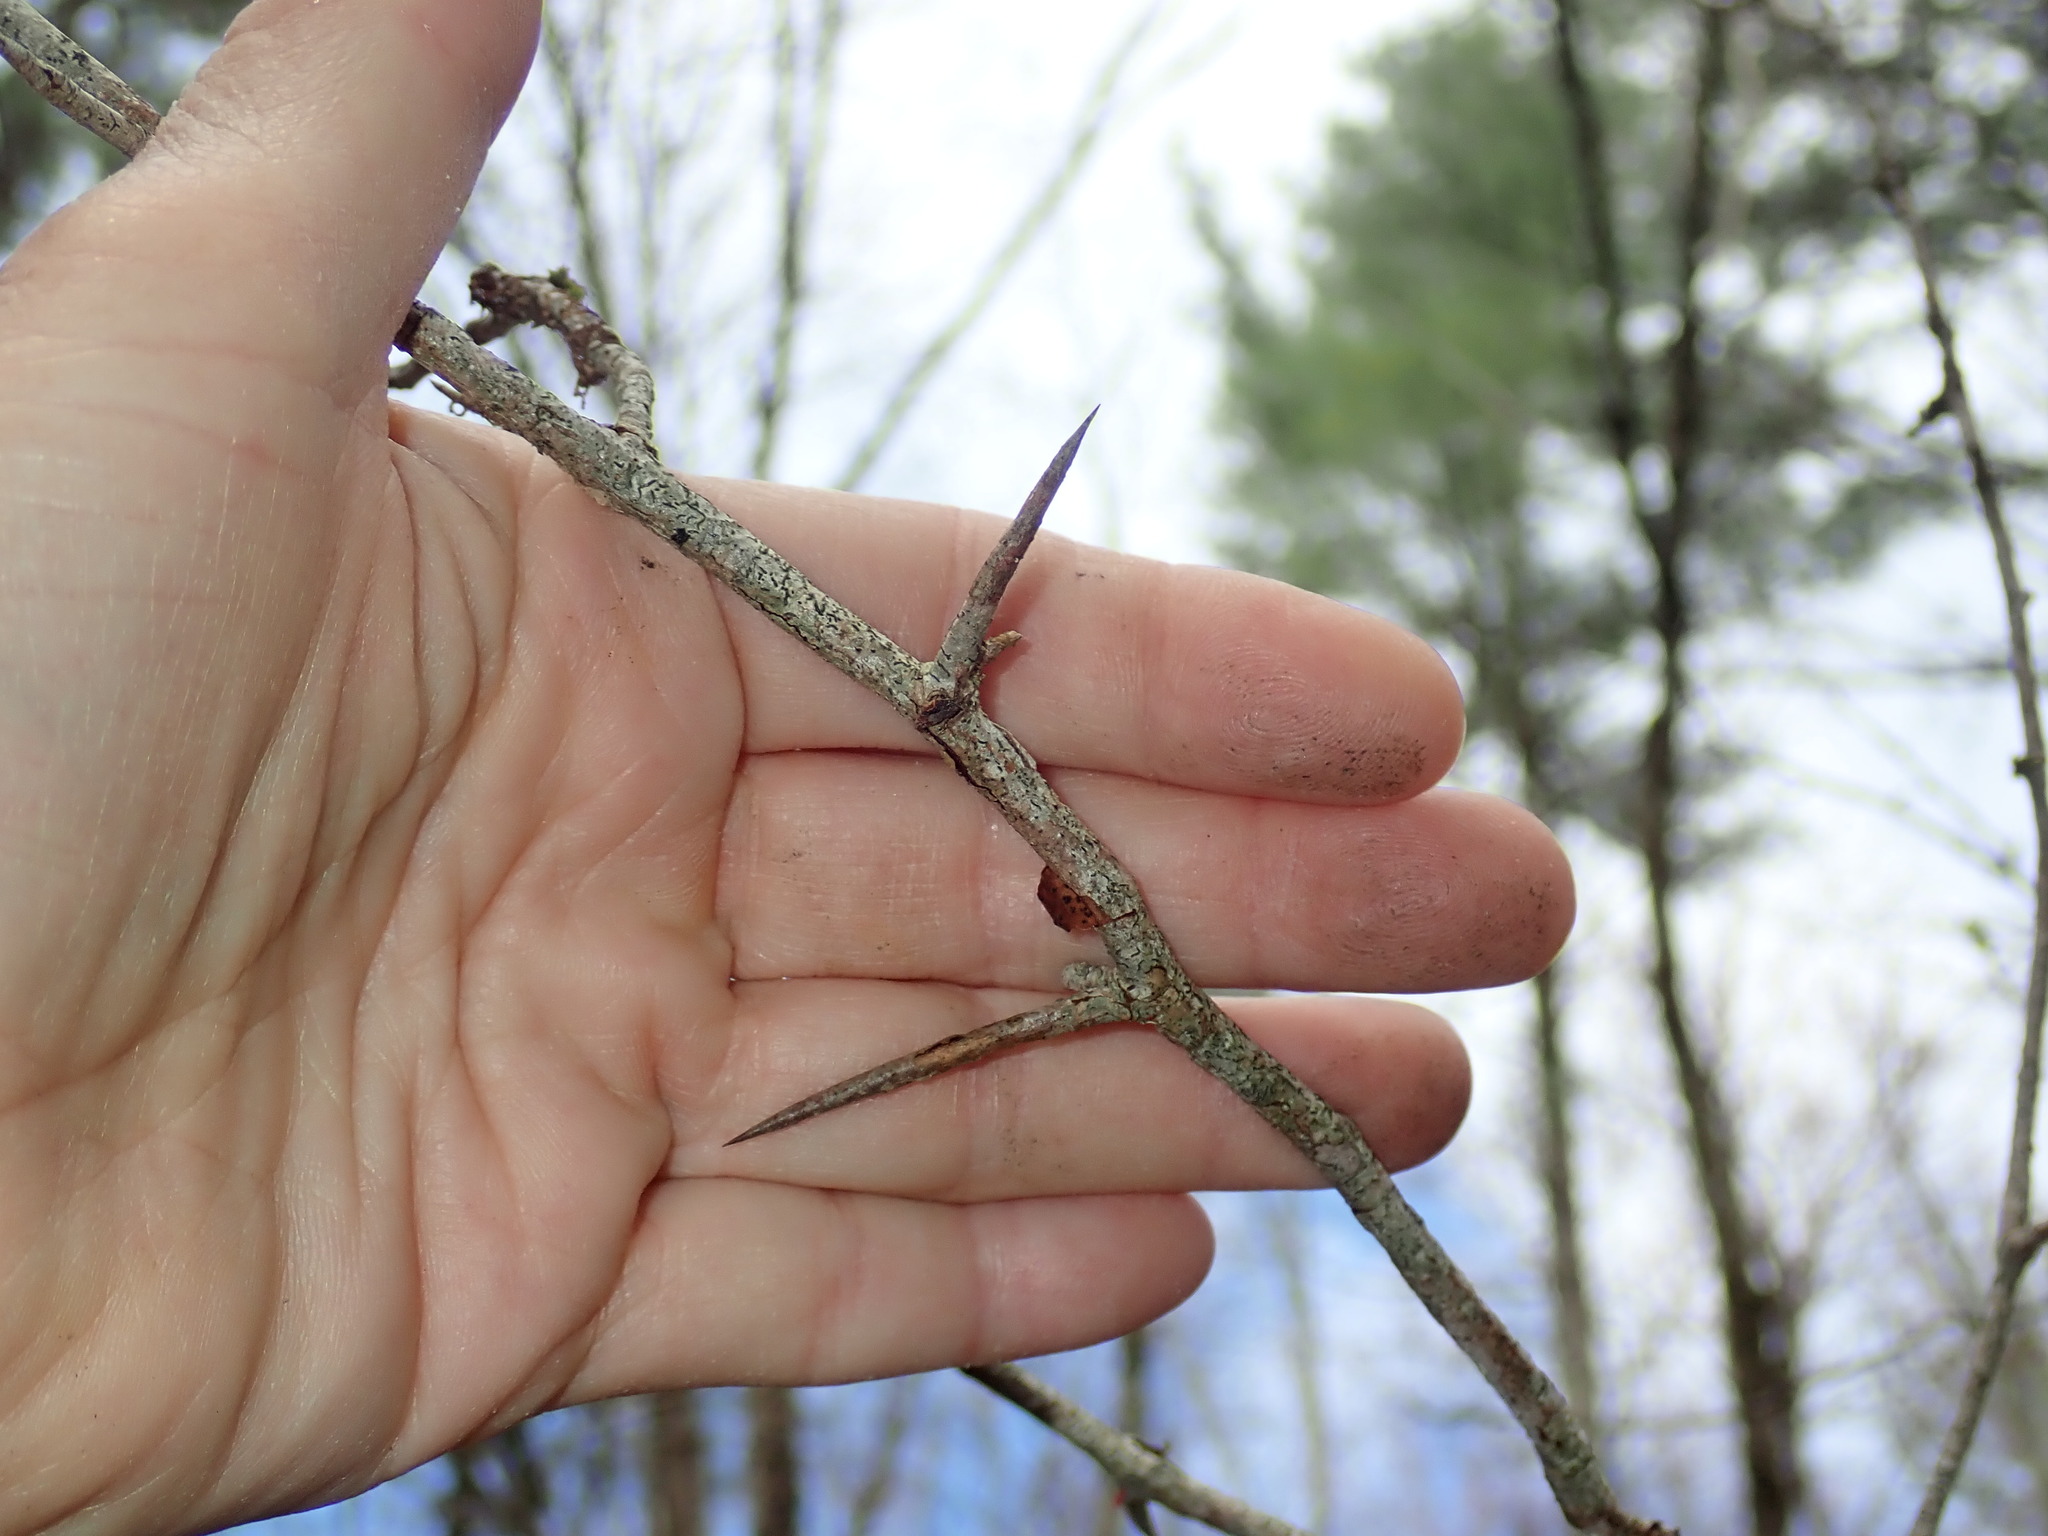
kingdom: Plantae
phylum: Tracheophyta
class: Magnoliopsida
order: Rosales
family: Rosaceae
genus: Crataegus
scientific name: Crataegus
